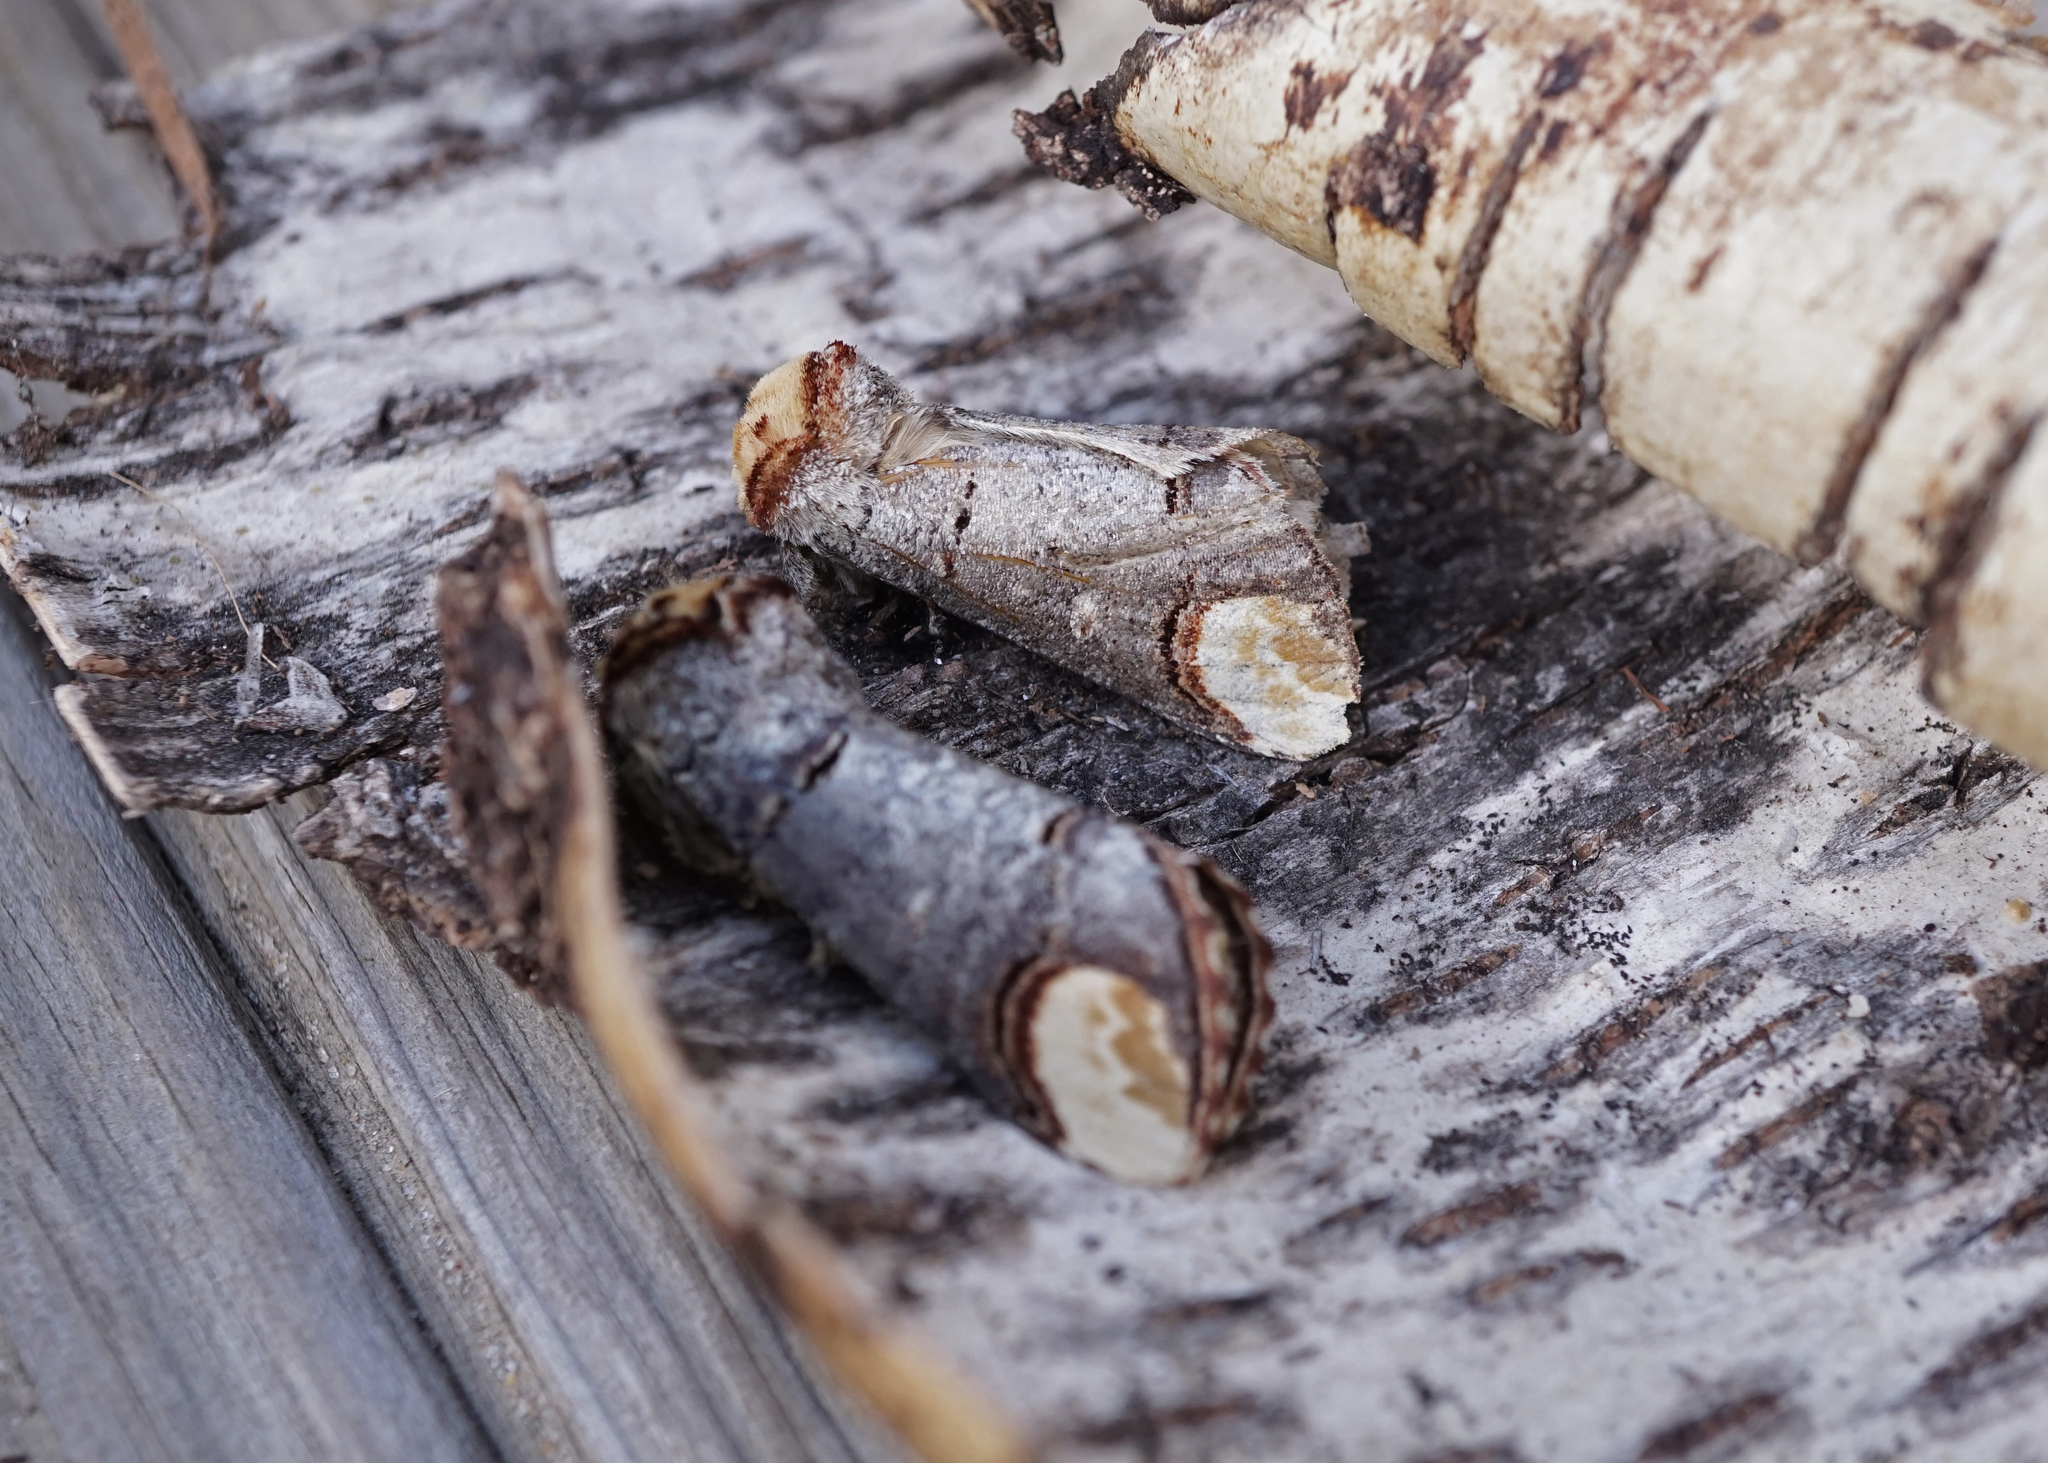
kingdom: Animalia
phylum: Arthropoda
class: Insecta
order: Lepidoptera
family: Notodontidae
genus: Phalera
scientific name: Phalera bucephala
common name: Buff-tip
